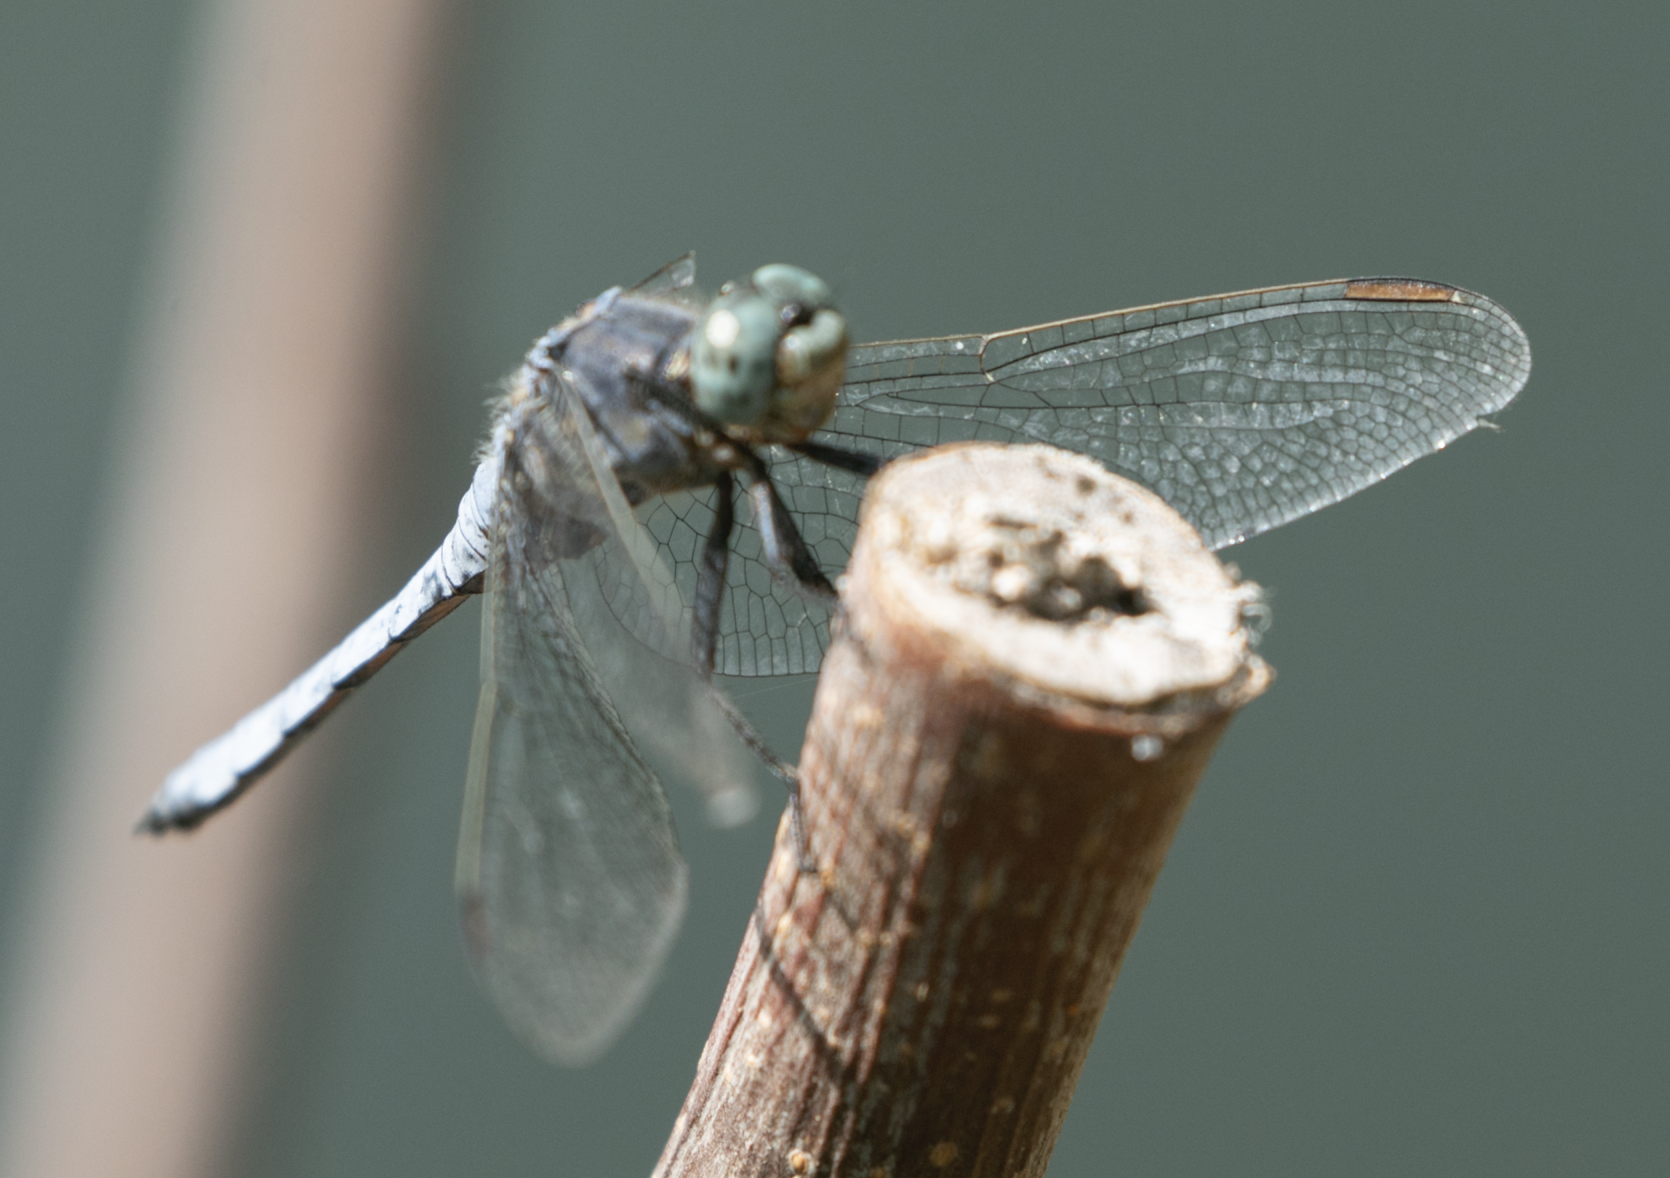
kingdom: Animalia
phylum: Arthropoda
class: Insecta
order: Odonata
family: Libellulidae
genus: Orthetrum
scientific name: Orthetrum coerulescens
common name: Keeled skimmer
